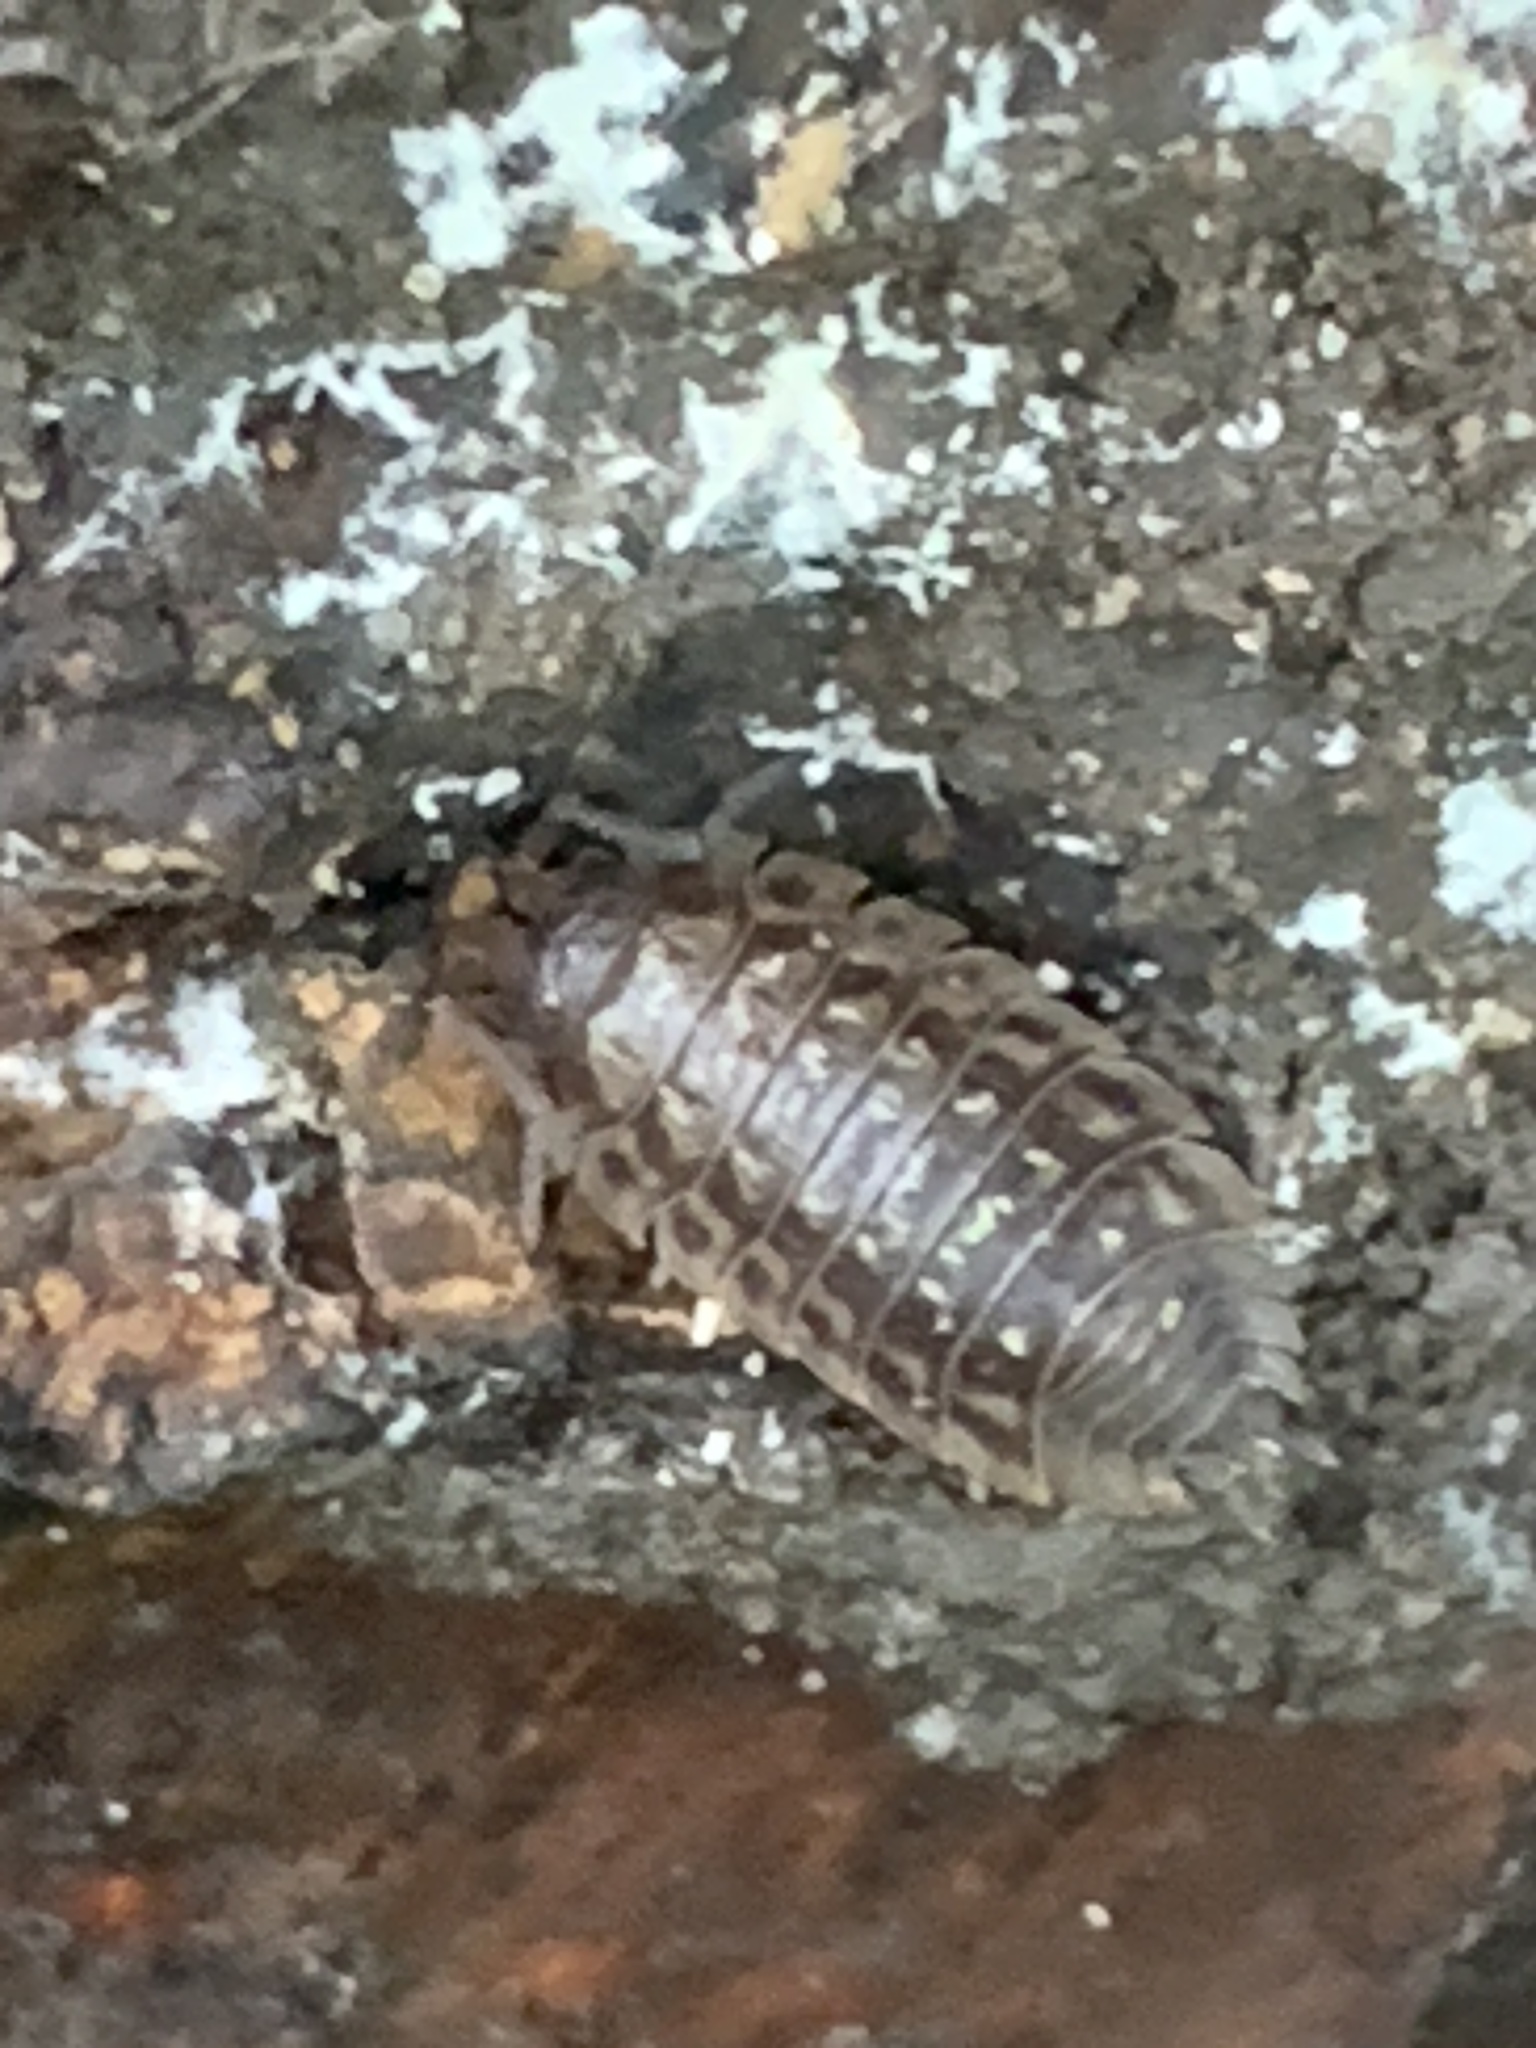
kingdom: Animalia
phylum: Arthropoda
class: Malacostraca
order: Isopoda
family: Oniscidae
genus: Oniscus
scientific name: Oniscus asellus
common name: Common shiny woodlouse
